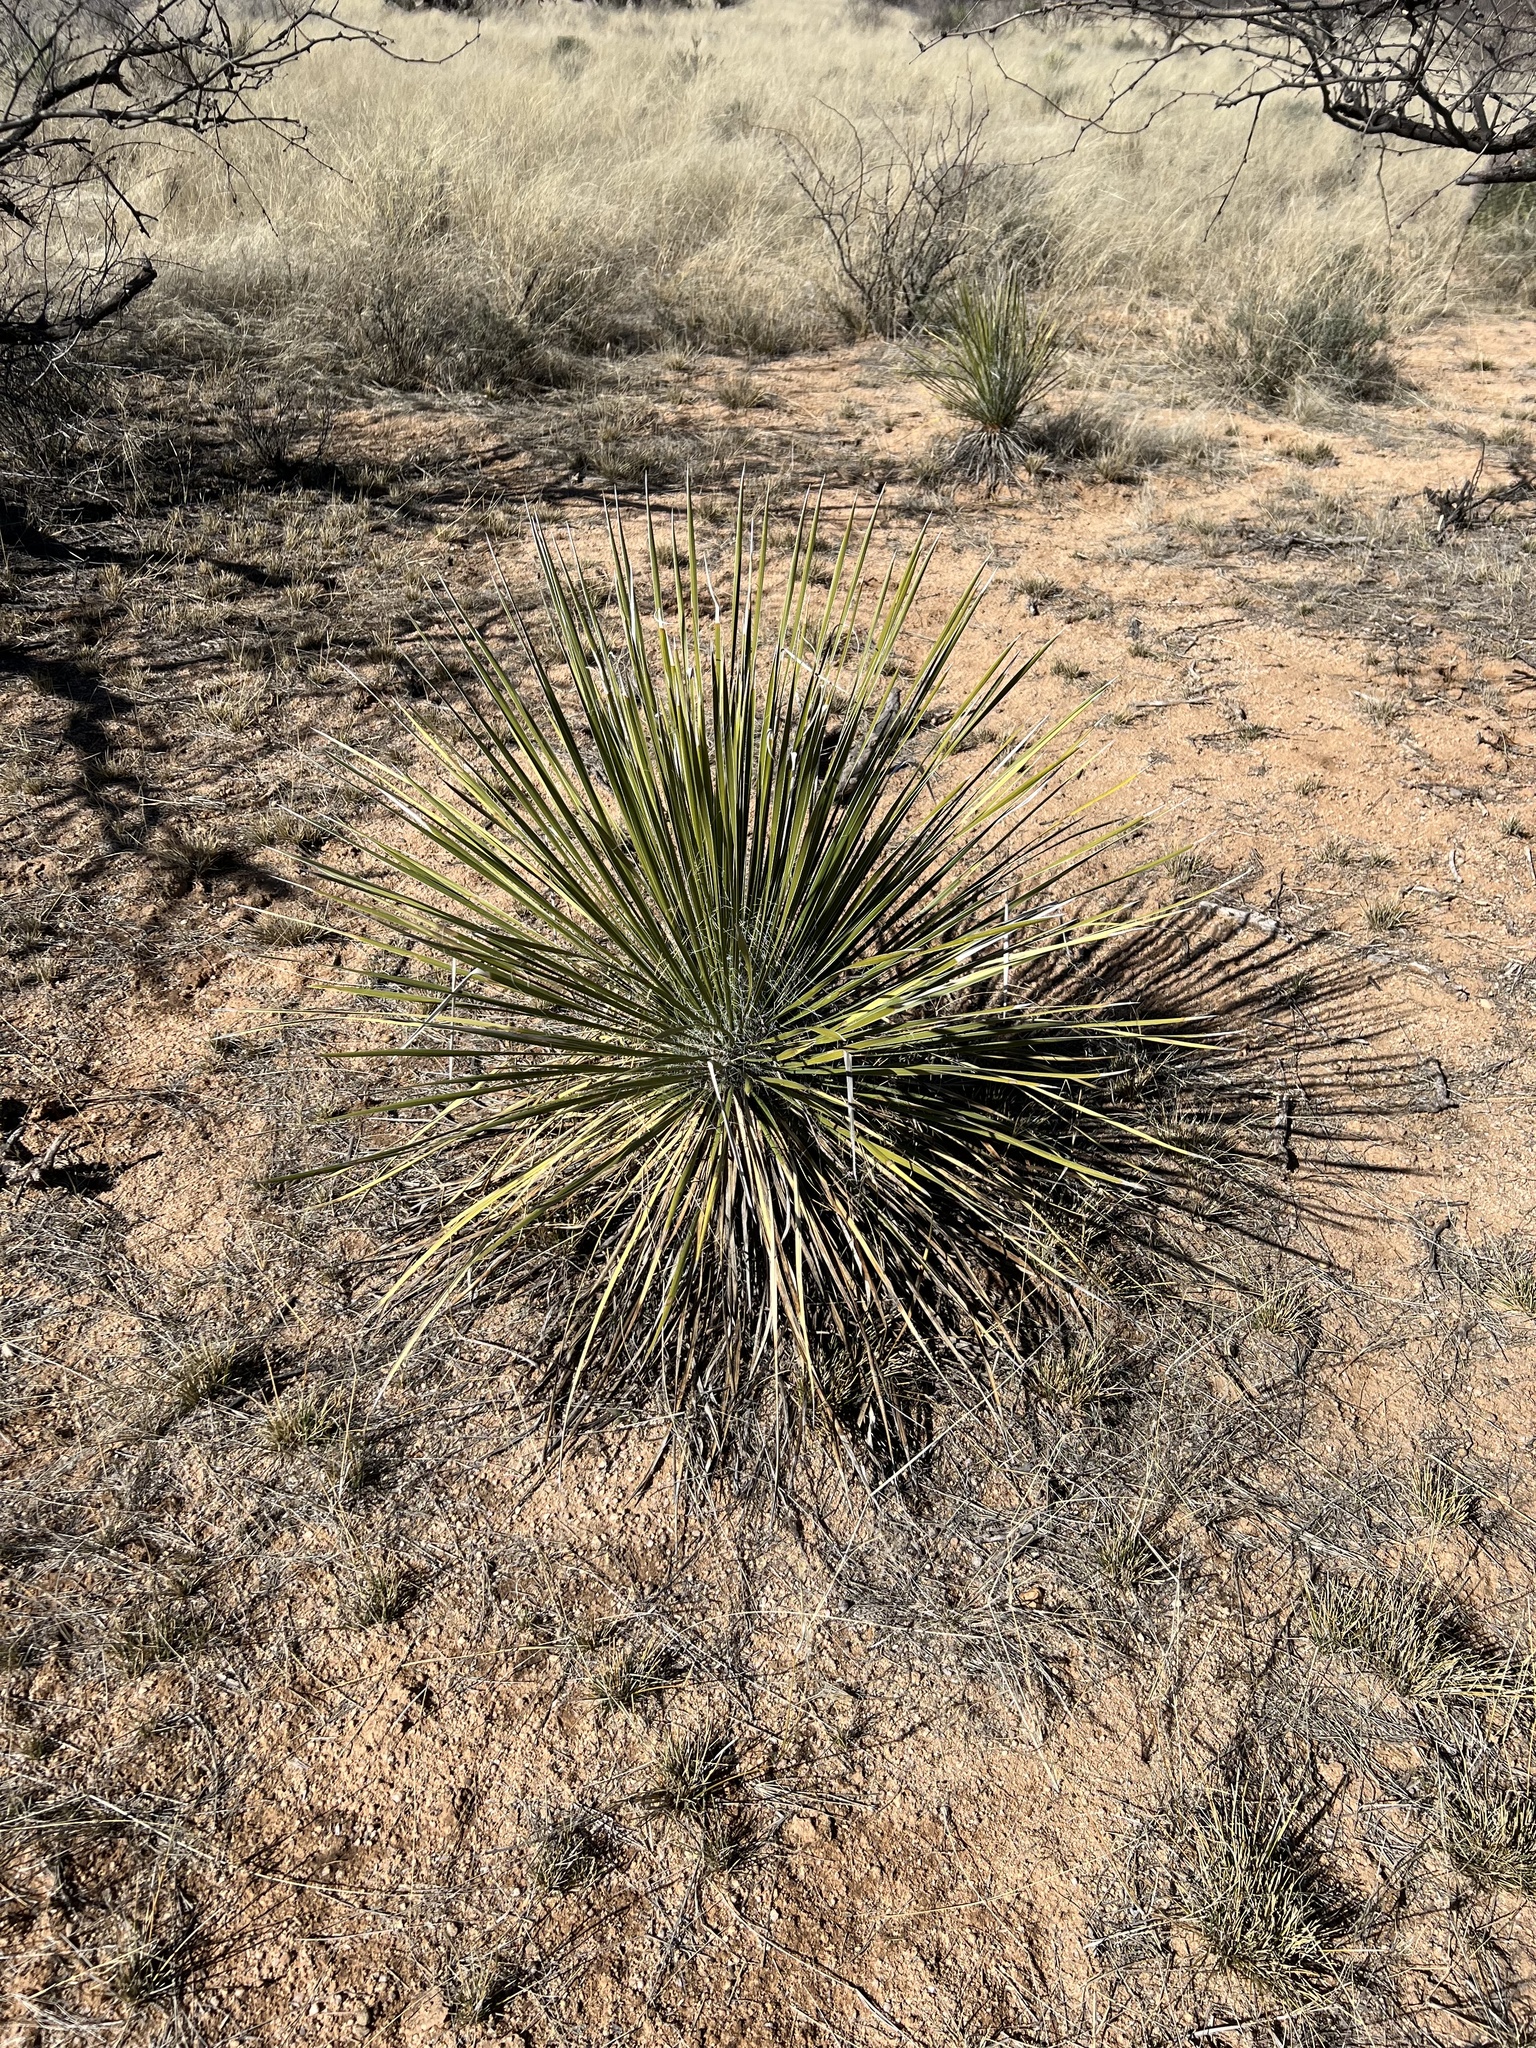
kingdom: Plantae
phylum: Tracheophyta
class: Liliopsida
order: Asparagales
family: Asparagaceae
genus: Yucca
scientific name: Yucca elata
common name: Palmella
